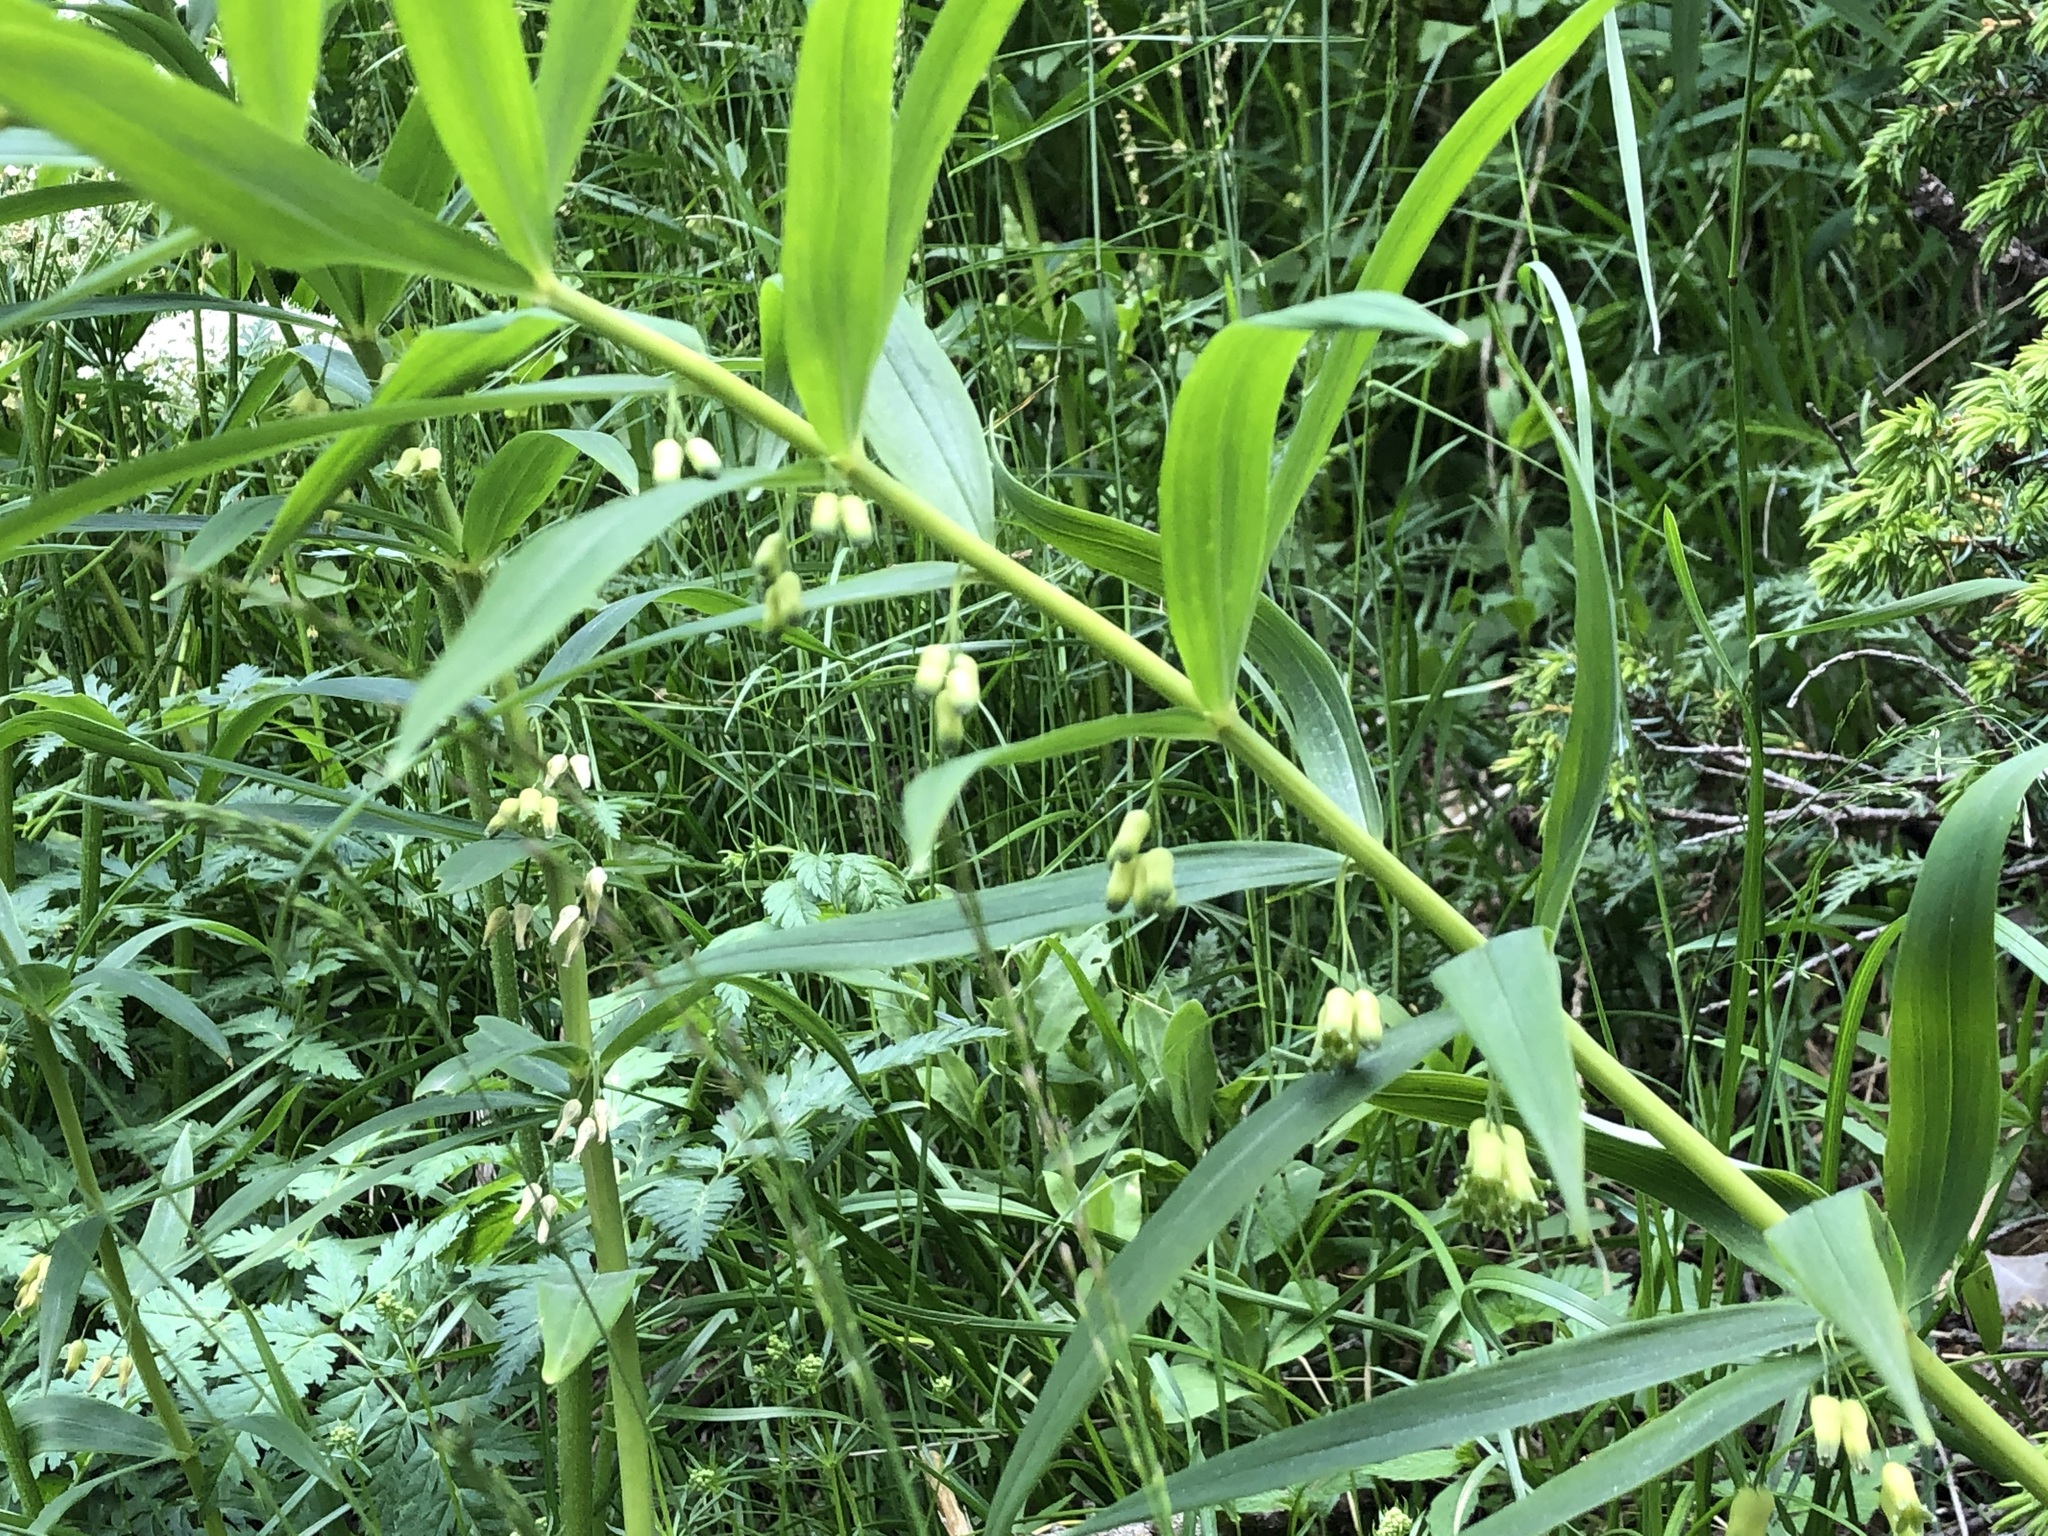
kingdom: Plantae
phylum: Tracheophyta
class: Liliopsida
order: Asparagales
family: Asparagaceae
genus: Polygonatum
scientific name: Polygonatum multiflorum
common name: Solomon's-seal
